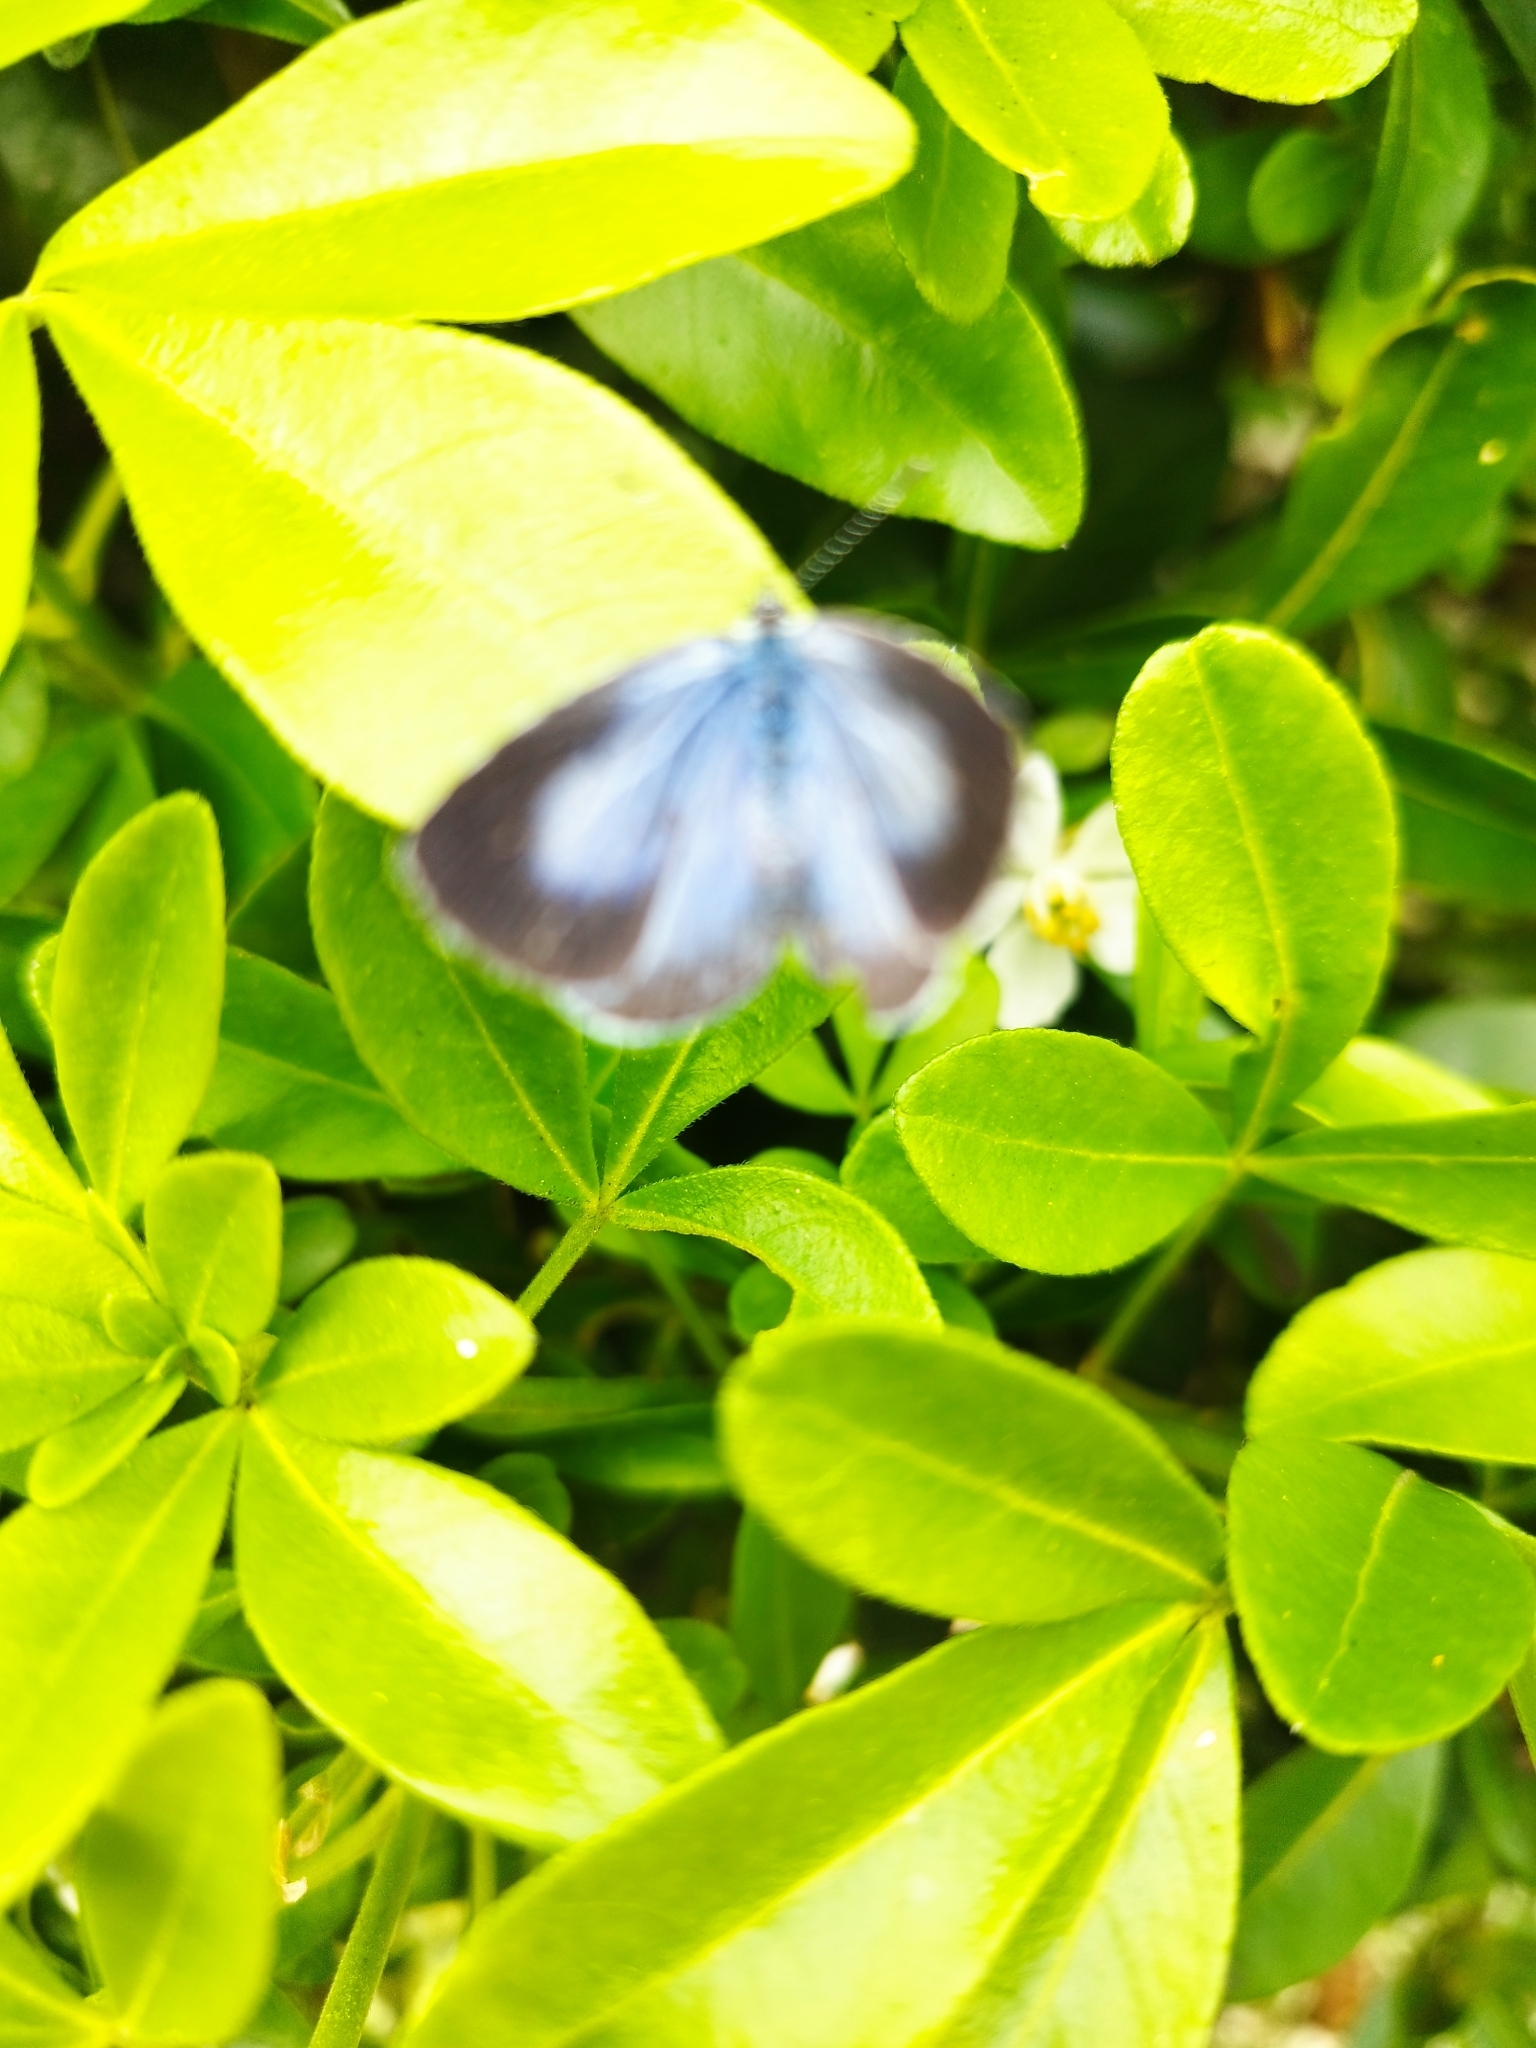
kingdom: Animalia
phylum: Arthropoda
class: Insecta
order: Lepidoptera
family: Lycaenidae
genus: Celastrina
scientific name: Celastrina argiolus
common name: Holly blue
